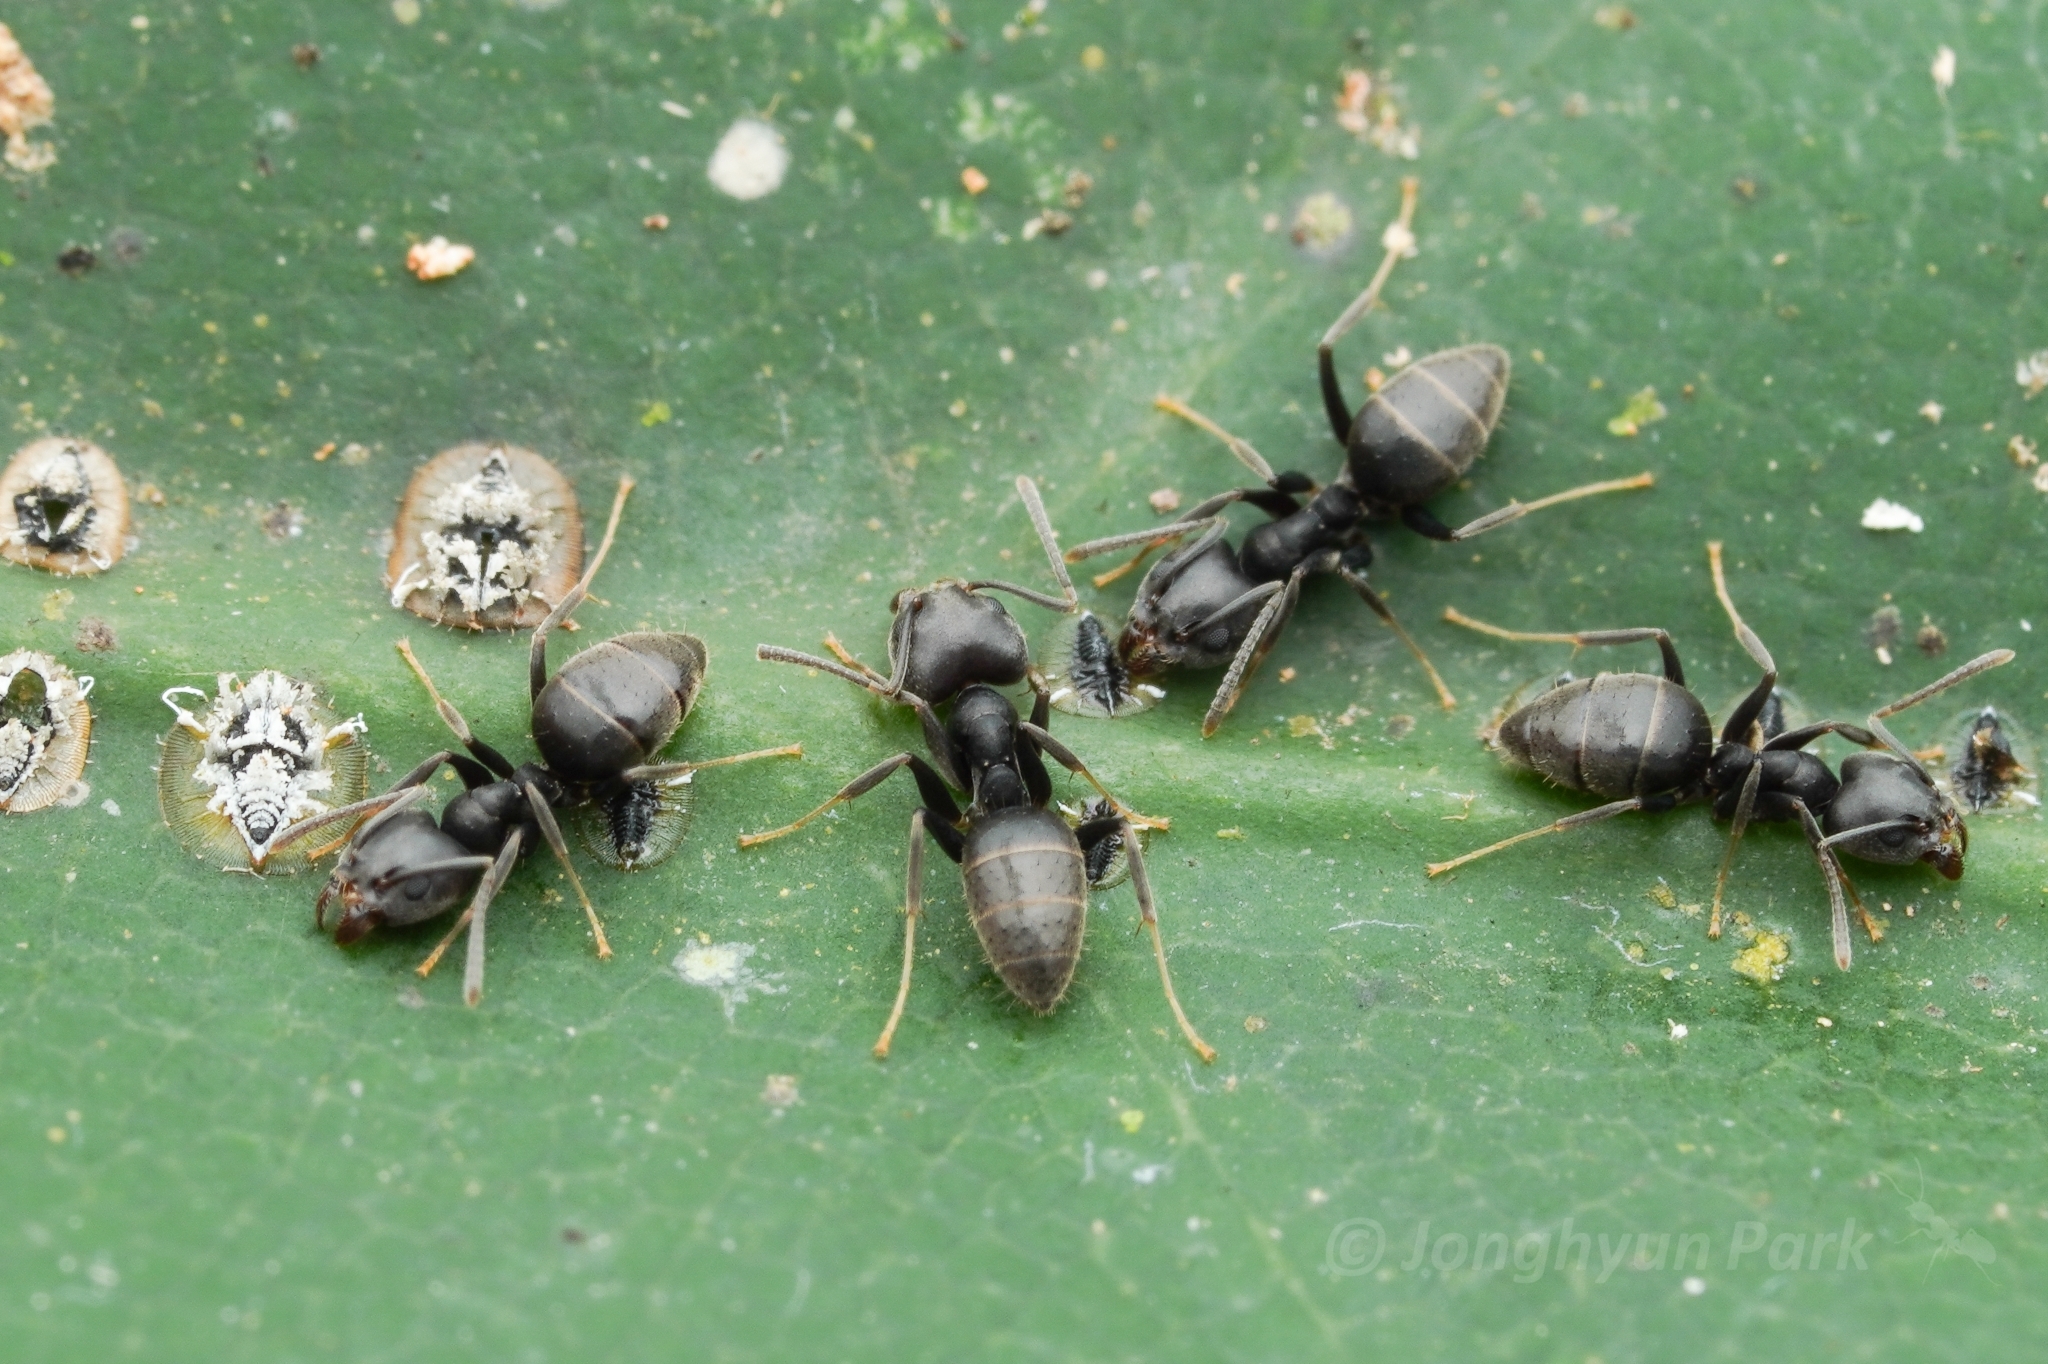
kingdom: Animalia
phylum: Arthropoda
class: Insecta
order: Hymenoptera
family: Formicidae
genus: Technomyrmex
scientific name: Technomyrmex modiglianii
